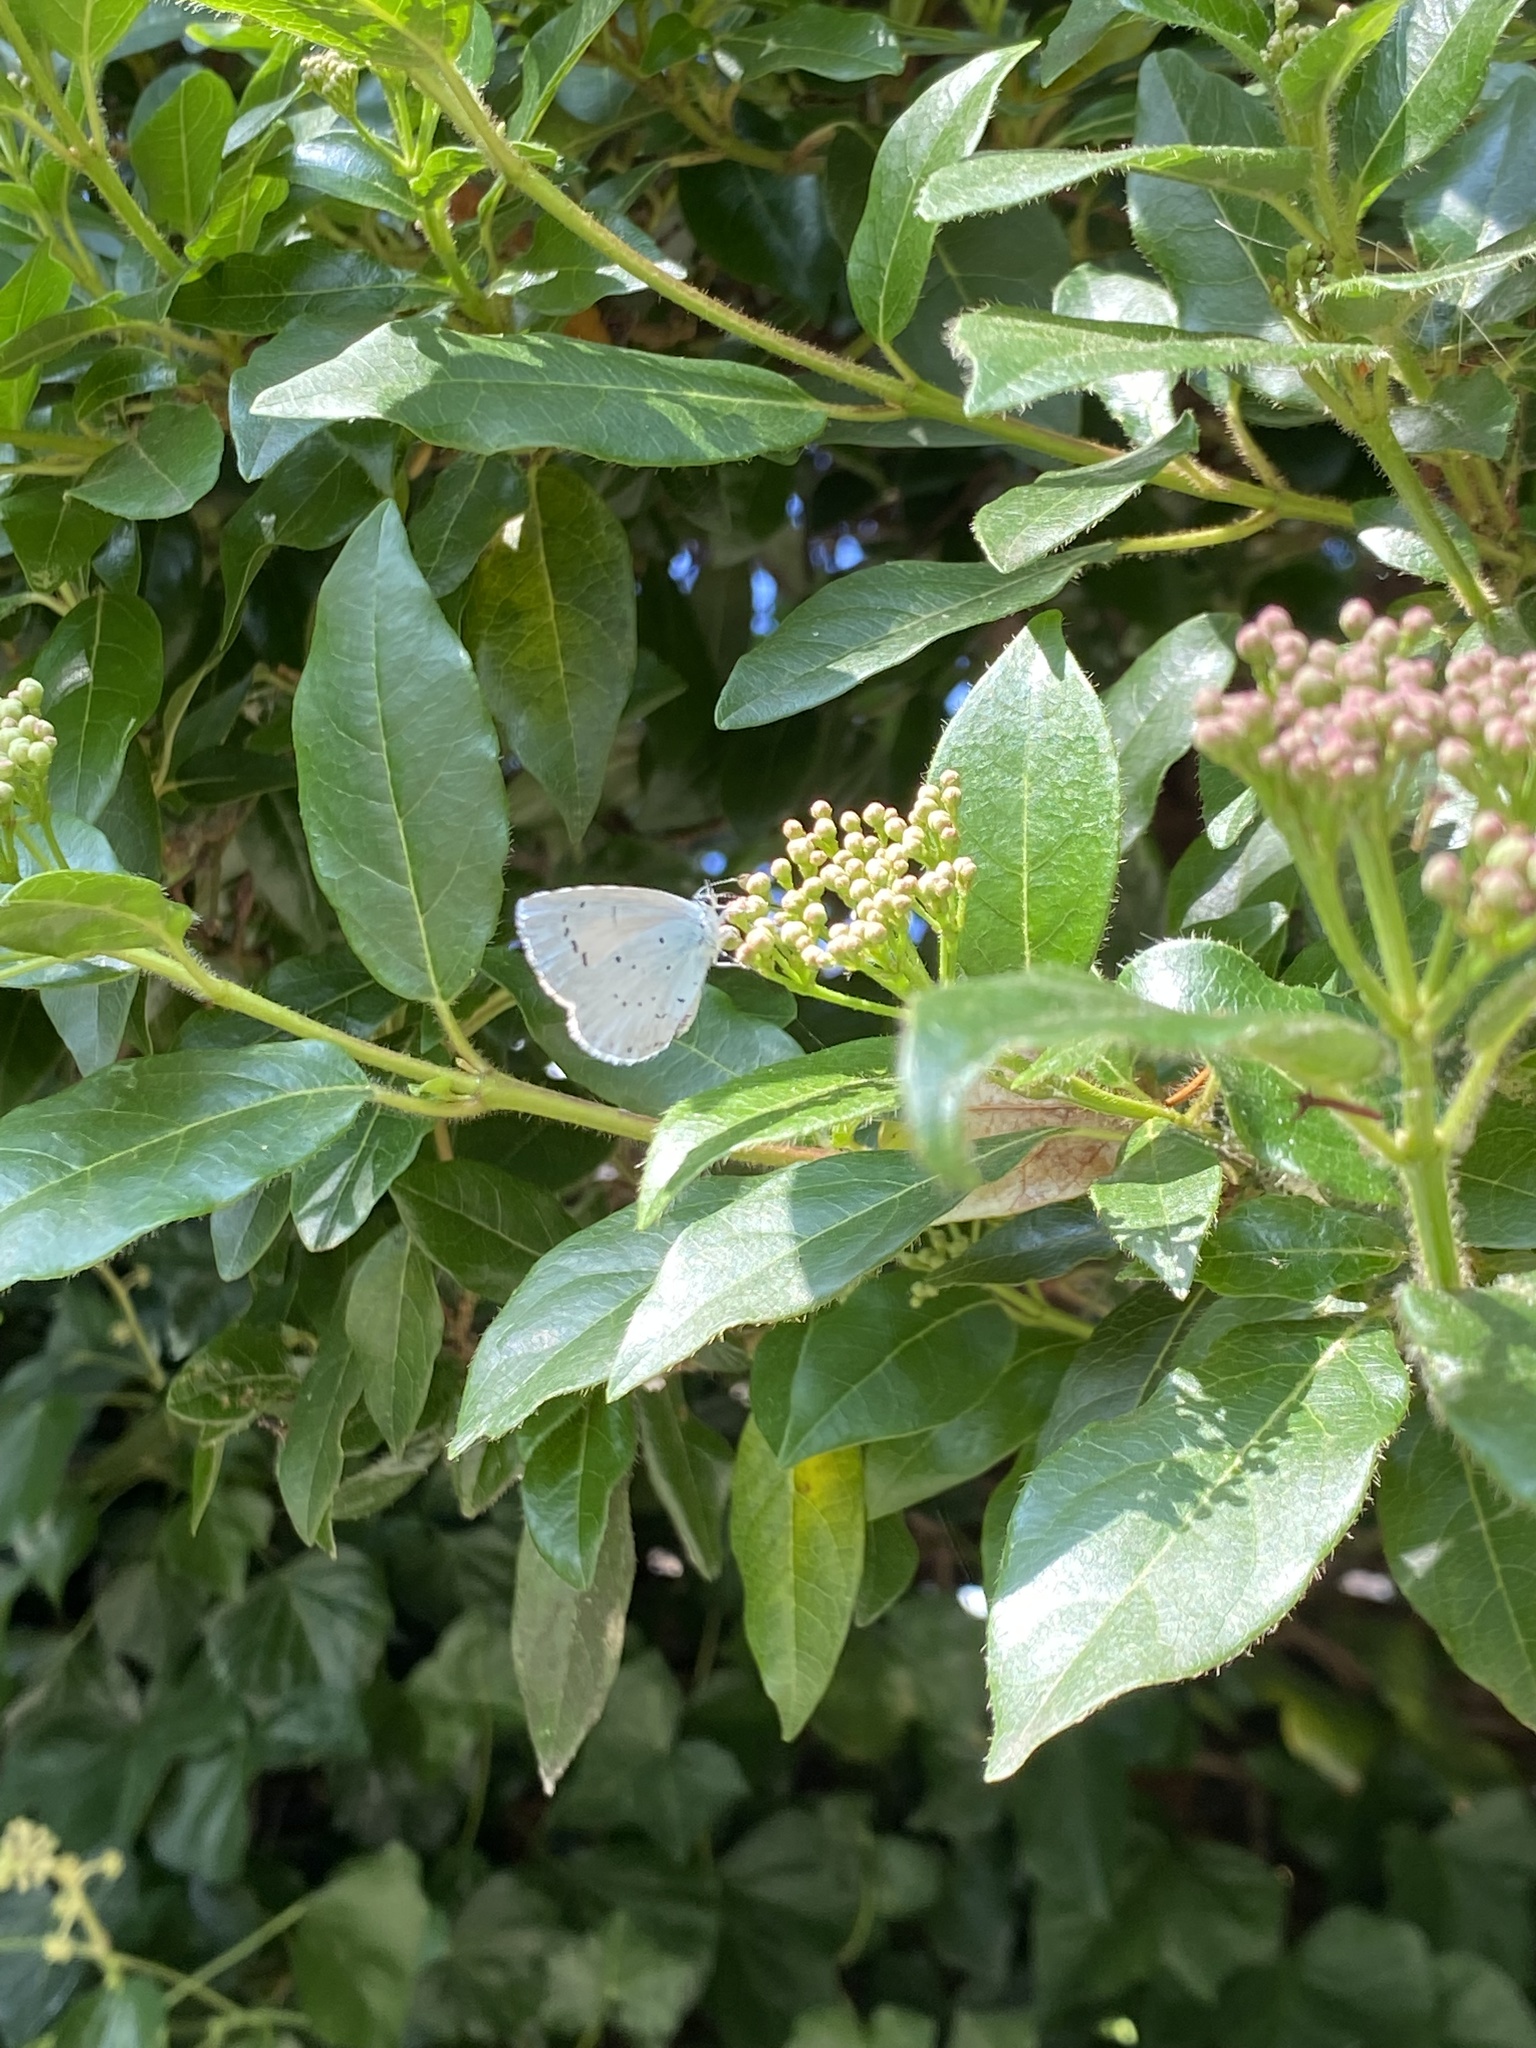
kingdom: Animalia
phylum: Arthropoda
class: Insecta
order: Lepidoptera
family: Lycaenidae
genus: Celastrina
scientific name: Celastrina argiolus
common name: Holly blue
